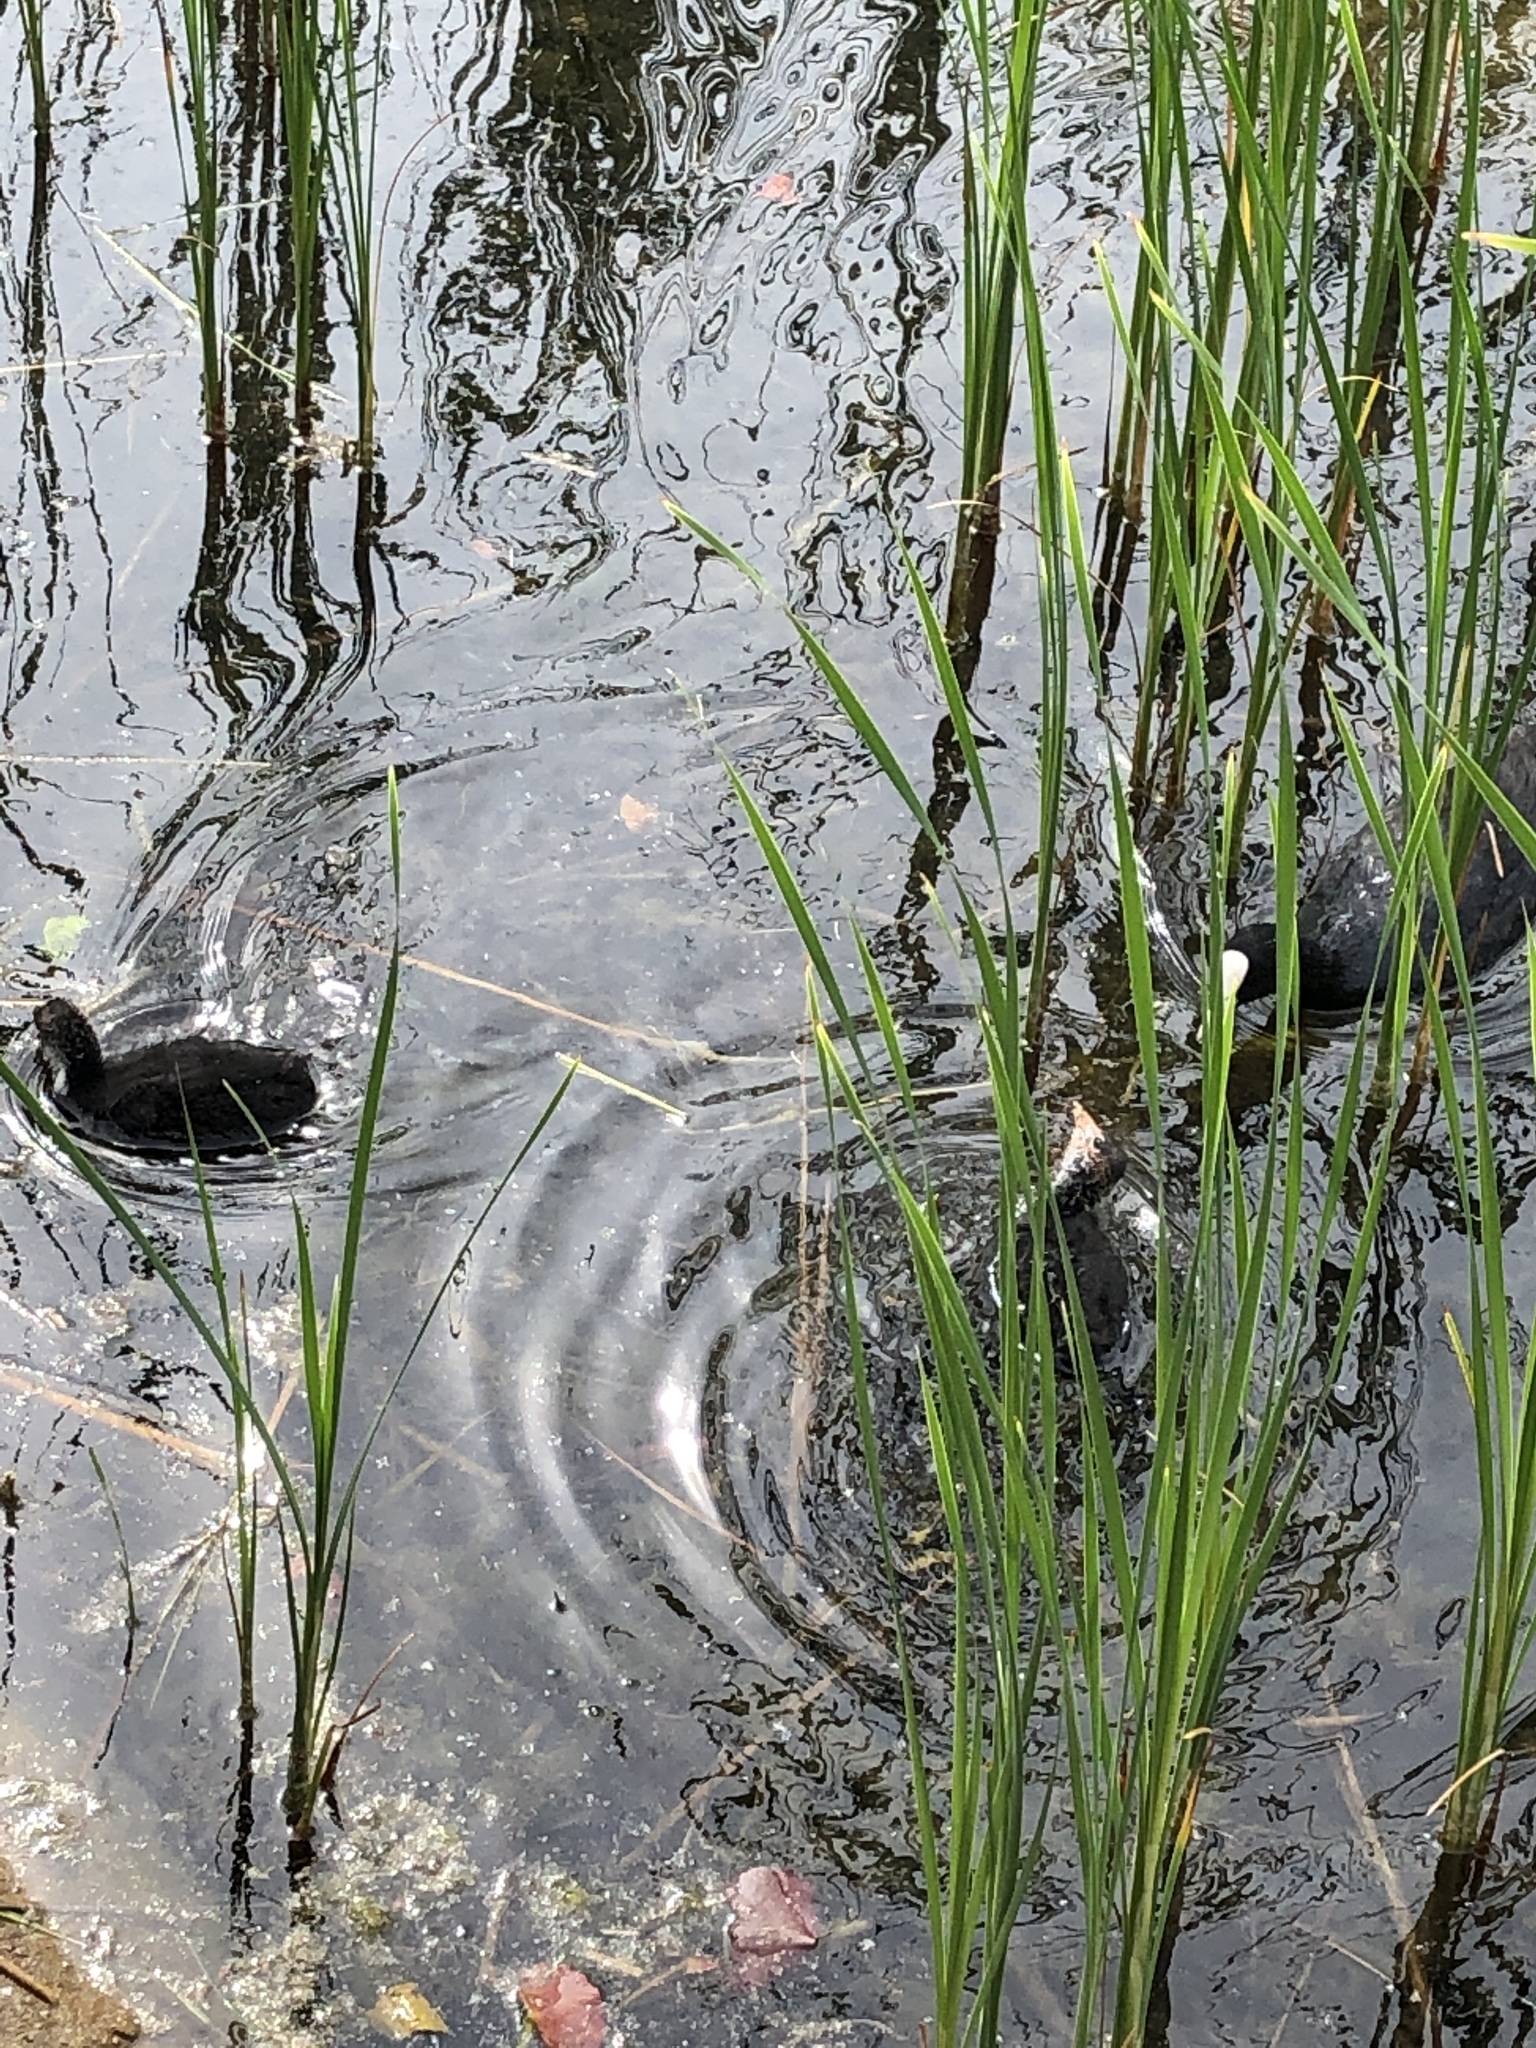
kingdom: Animalia
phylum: Chordata
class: Aves
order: Gruiformes
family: Rallidae
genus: Fulica
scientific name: Fulica atra
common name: Eurasian coot
